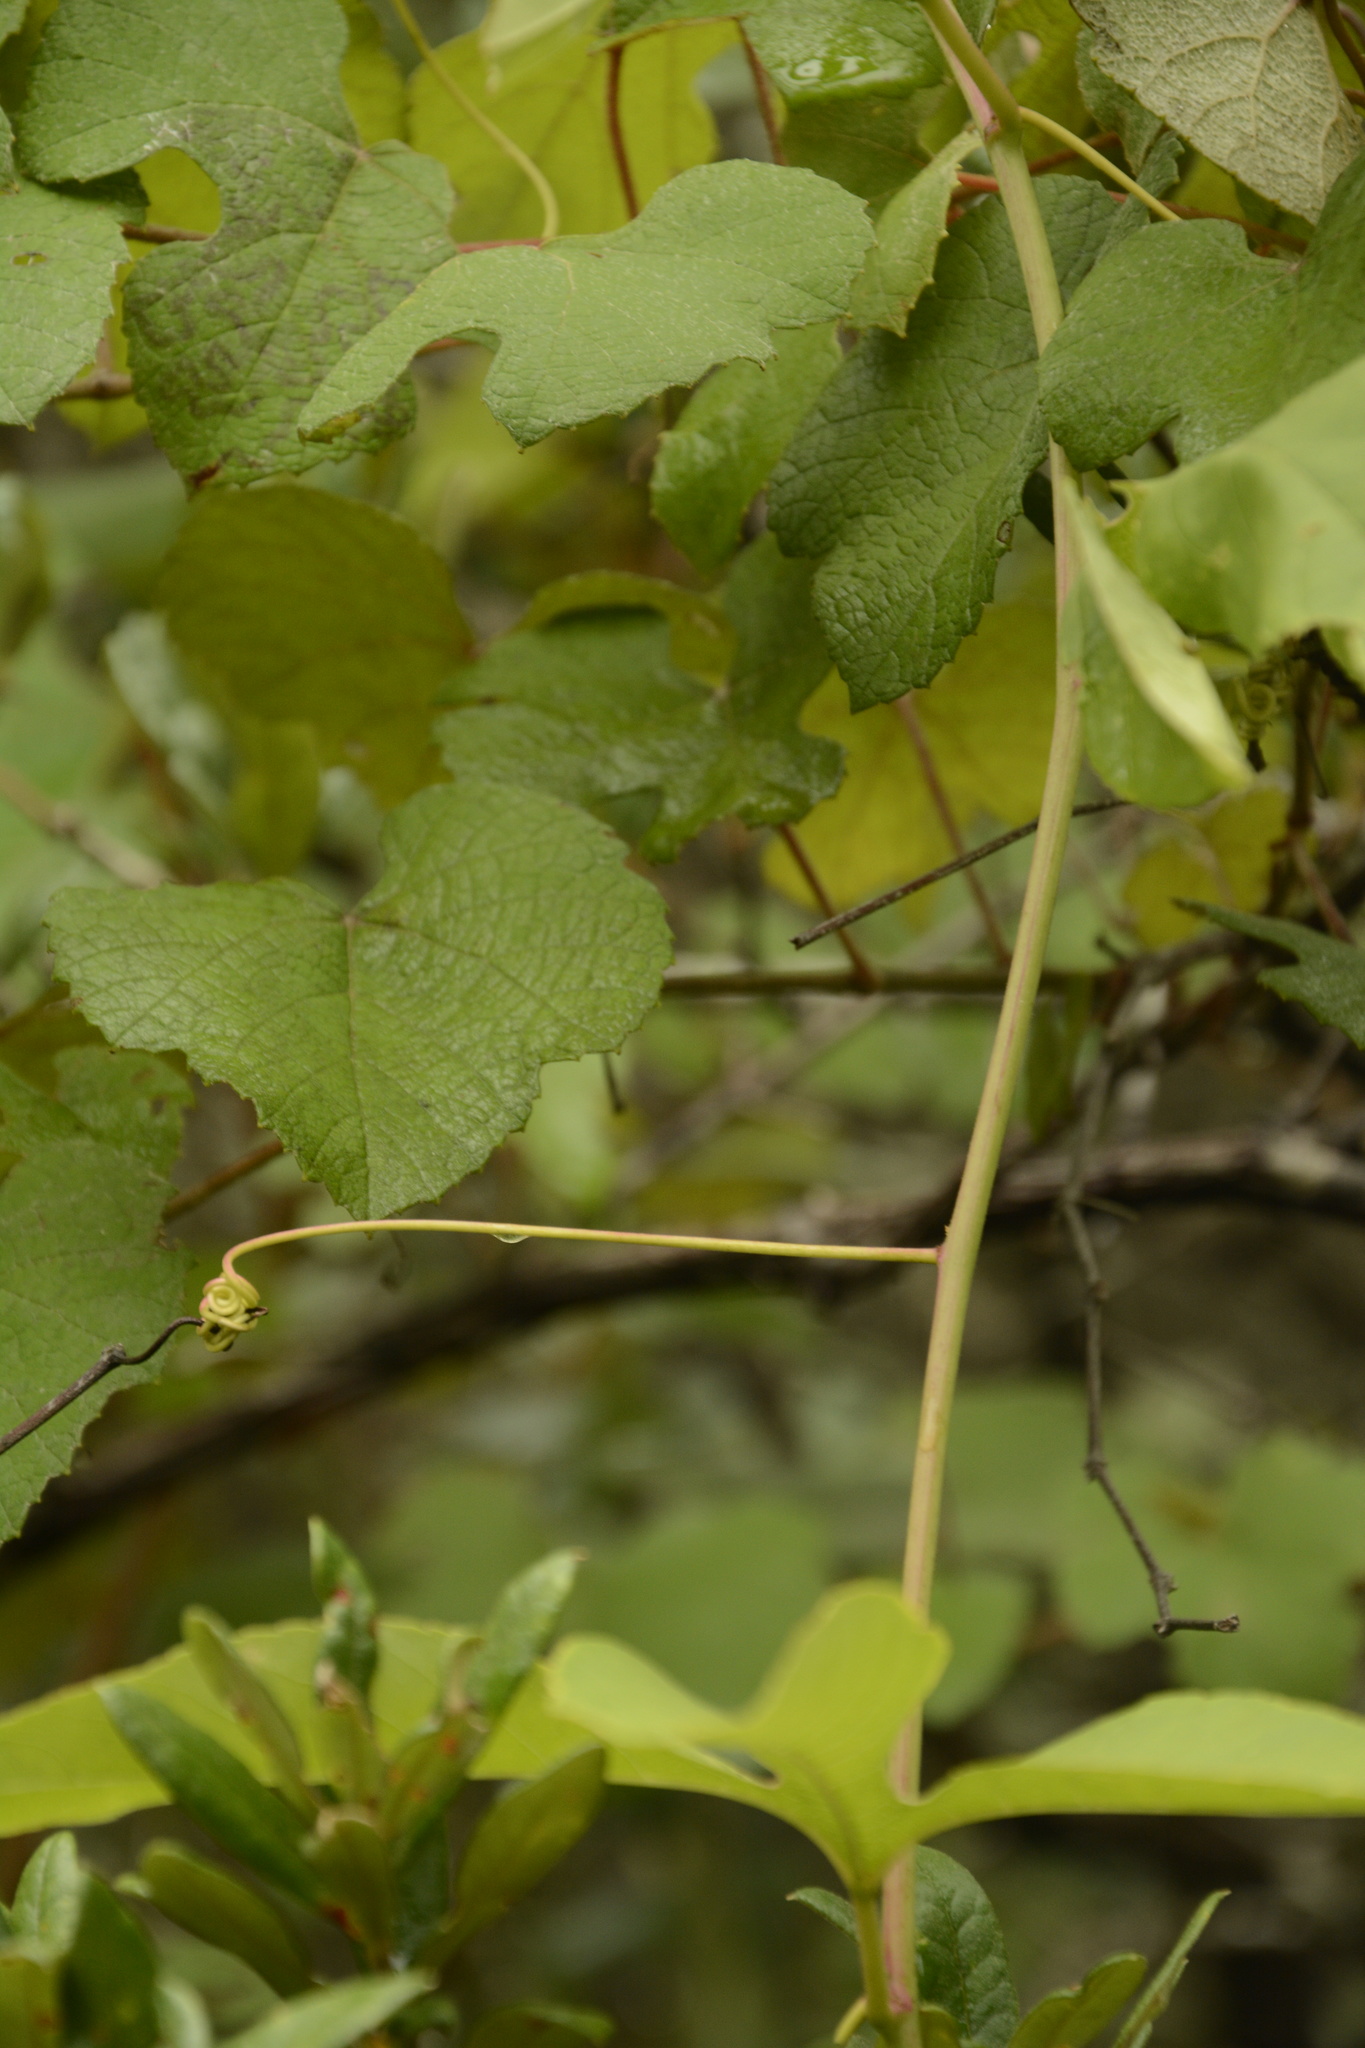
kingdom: Plantae
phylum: Tracheophyta
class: Magnoliopsida
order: Vitales
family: Vitaceae
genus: Vitis
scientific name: Vitis aestivalis
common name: Pigeon grape
